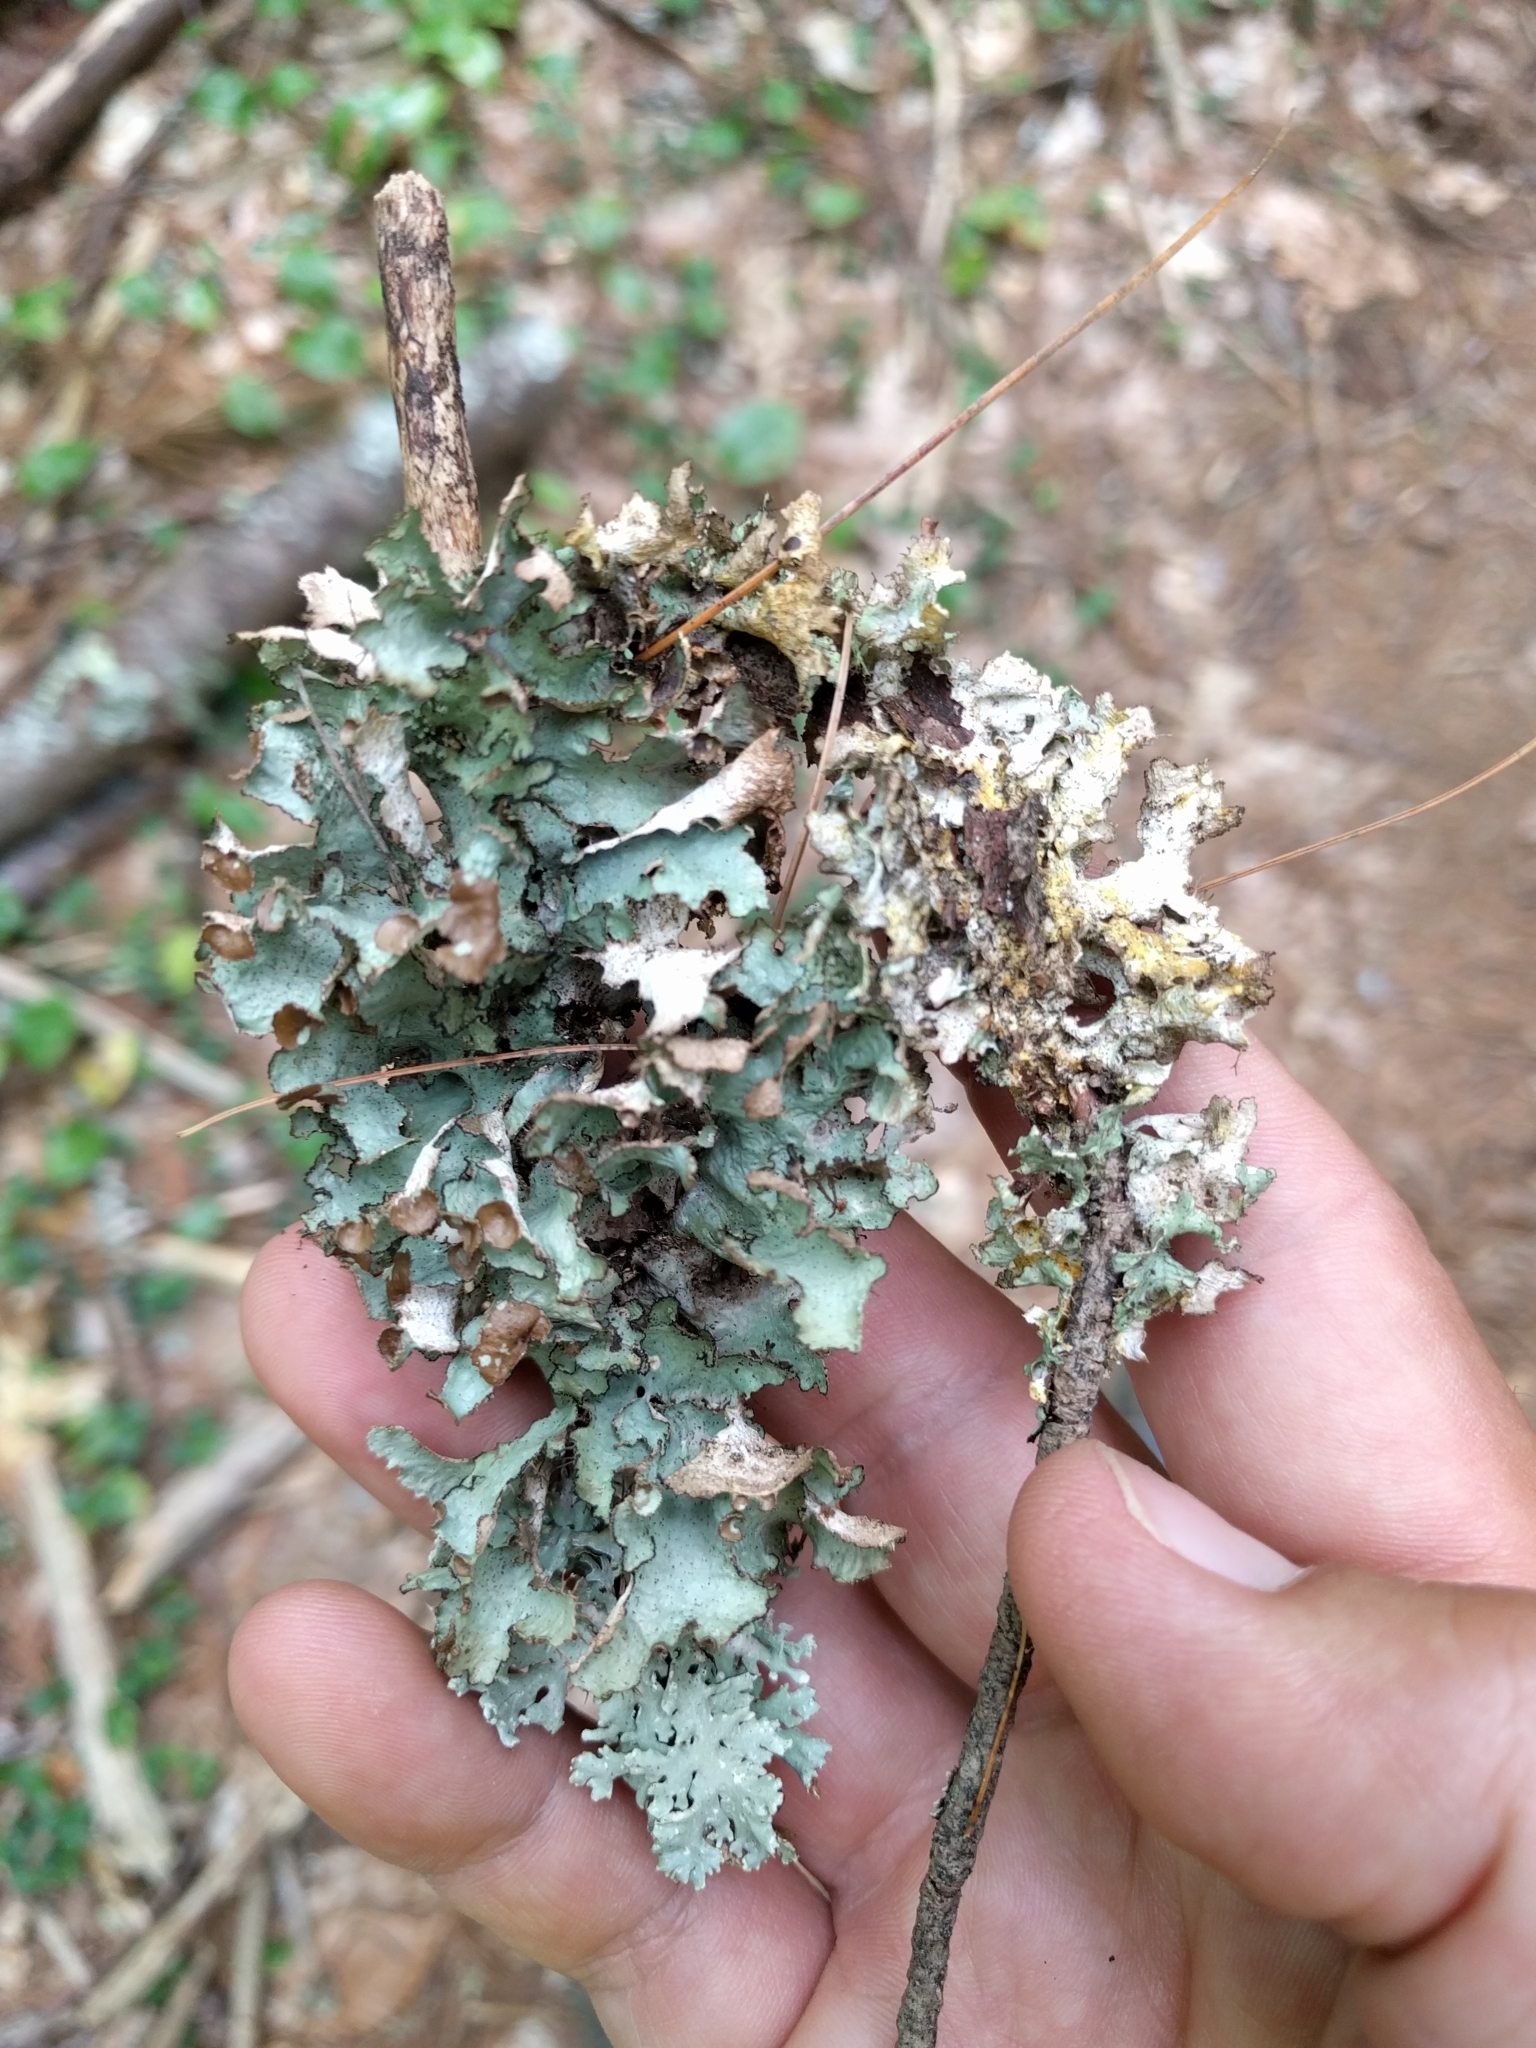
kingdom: Fungi
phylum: Ascomycota
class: Lecanoromycetes
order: Lecanorales
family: Parmeliaceae
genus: Platismatia
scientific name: Platismatia glauca
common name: Varied rag lichen
